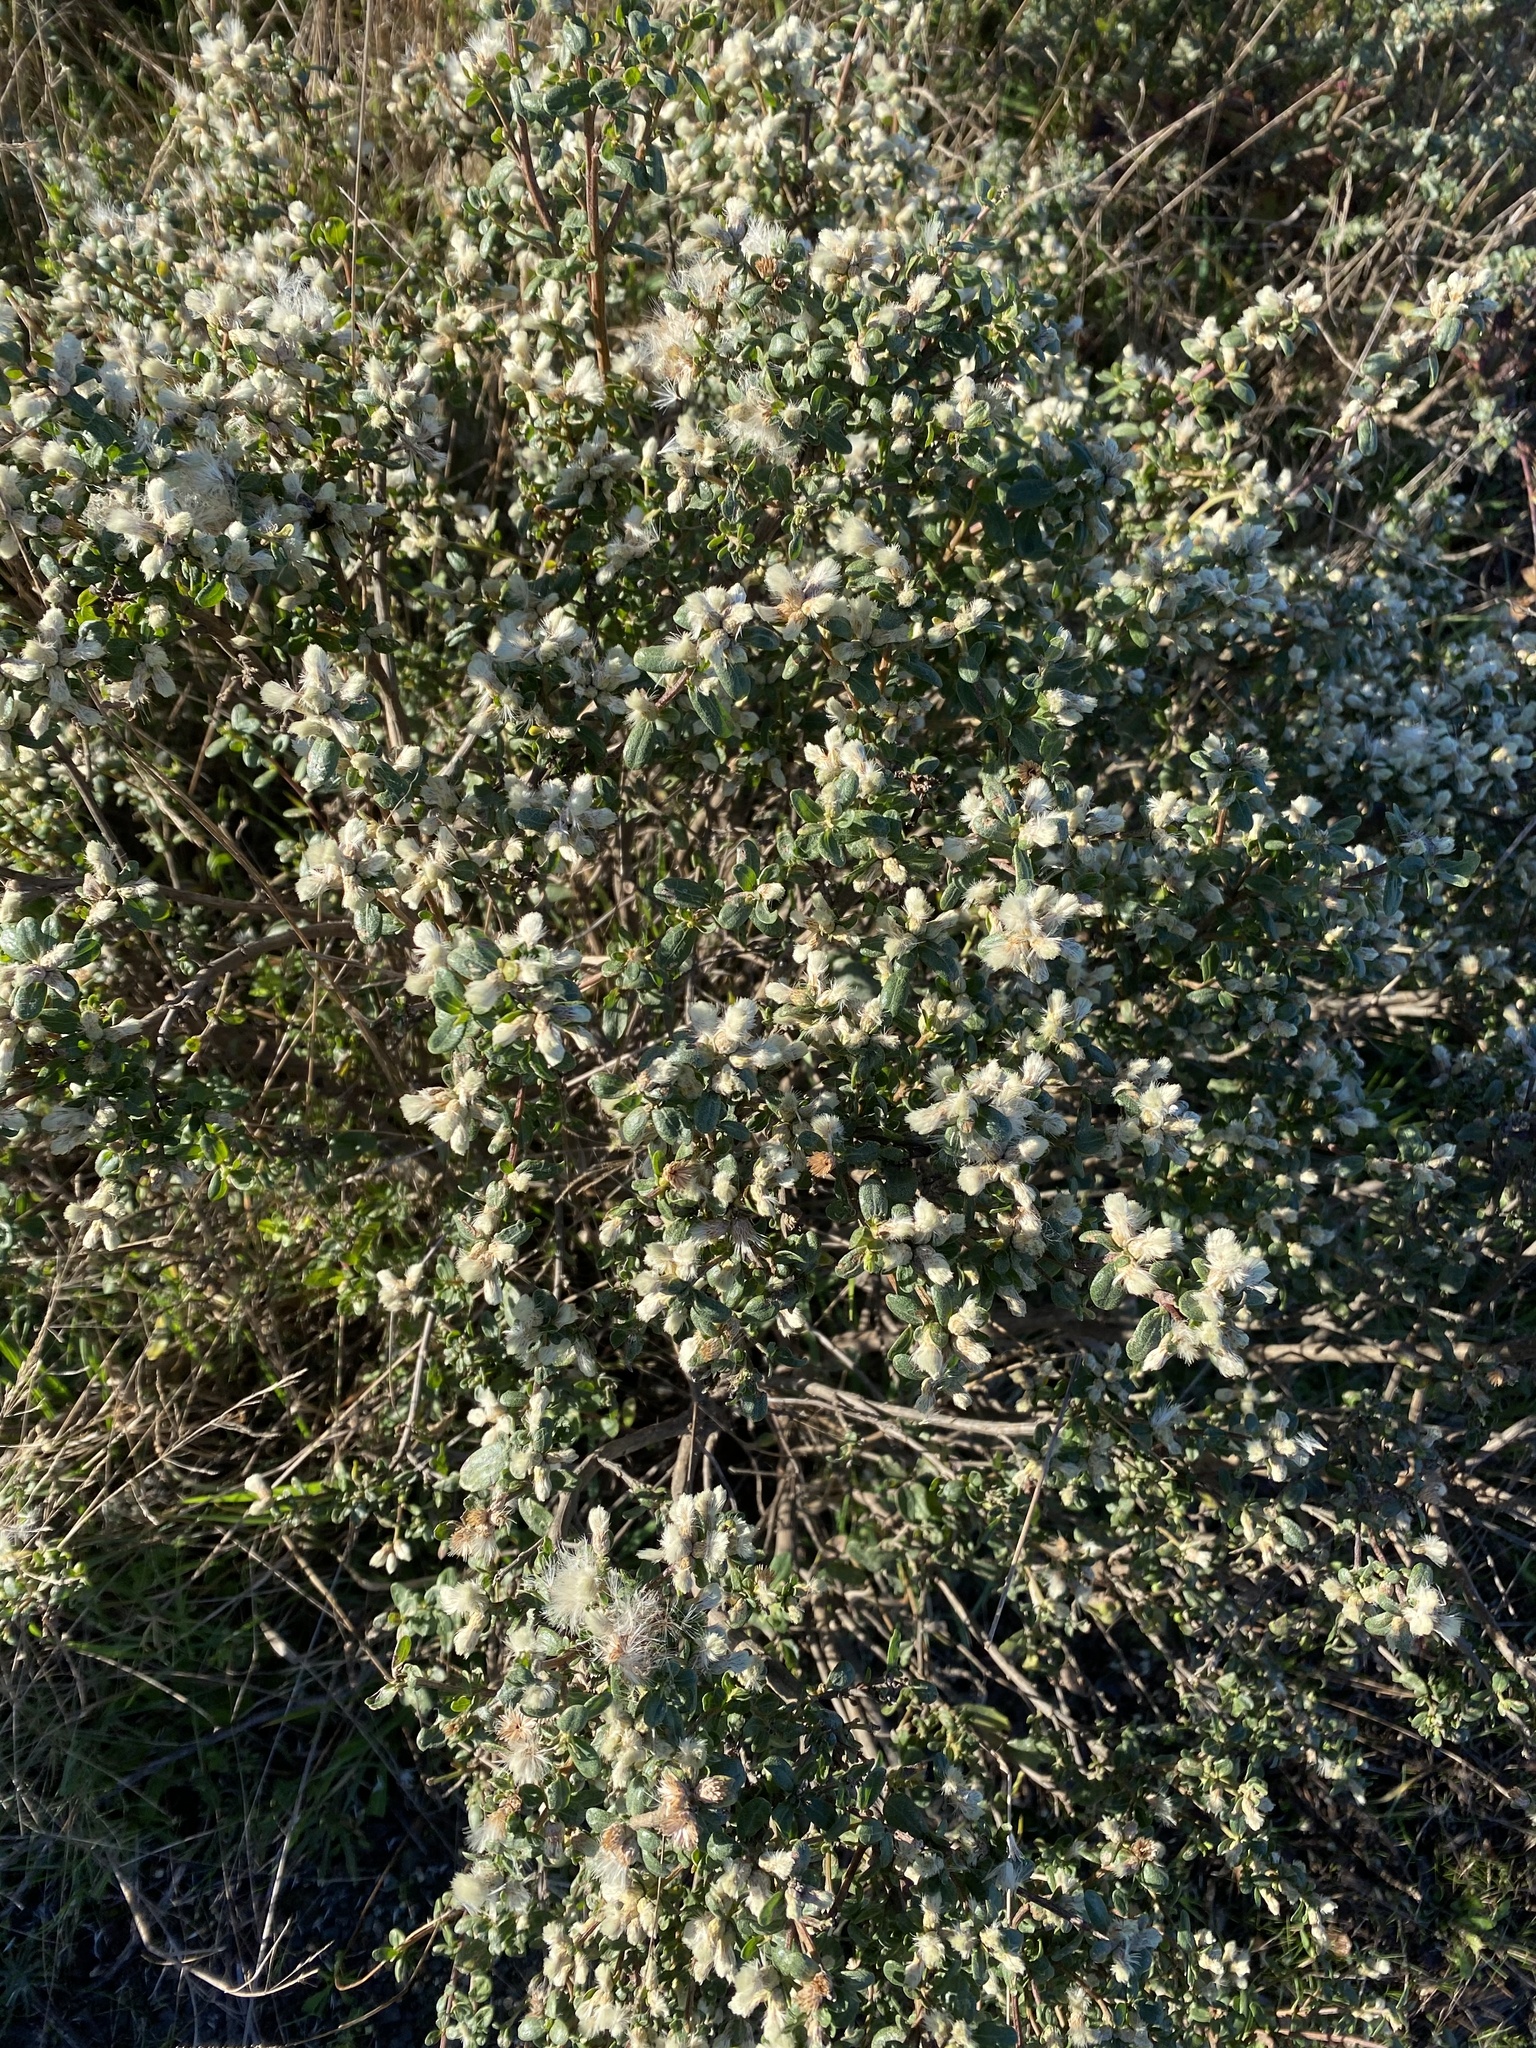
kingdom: Plantae
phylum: Tracheophyta
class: Magnoliopsida
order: Asterales
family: Asteraceae
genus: Baccharis
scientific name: Baccharis pilularis
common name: Coyotebrush
